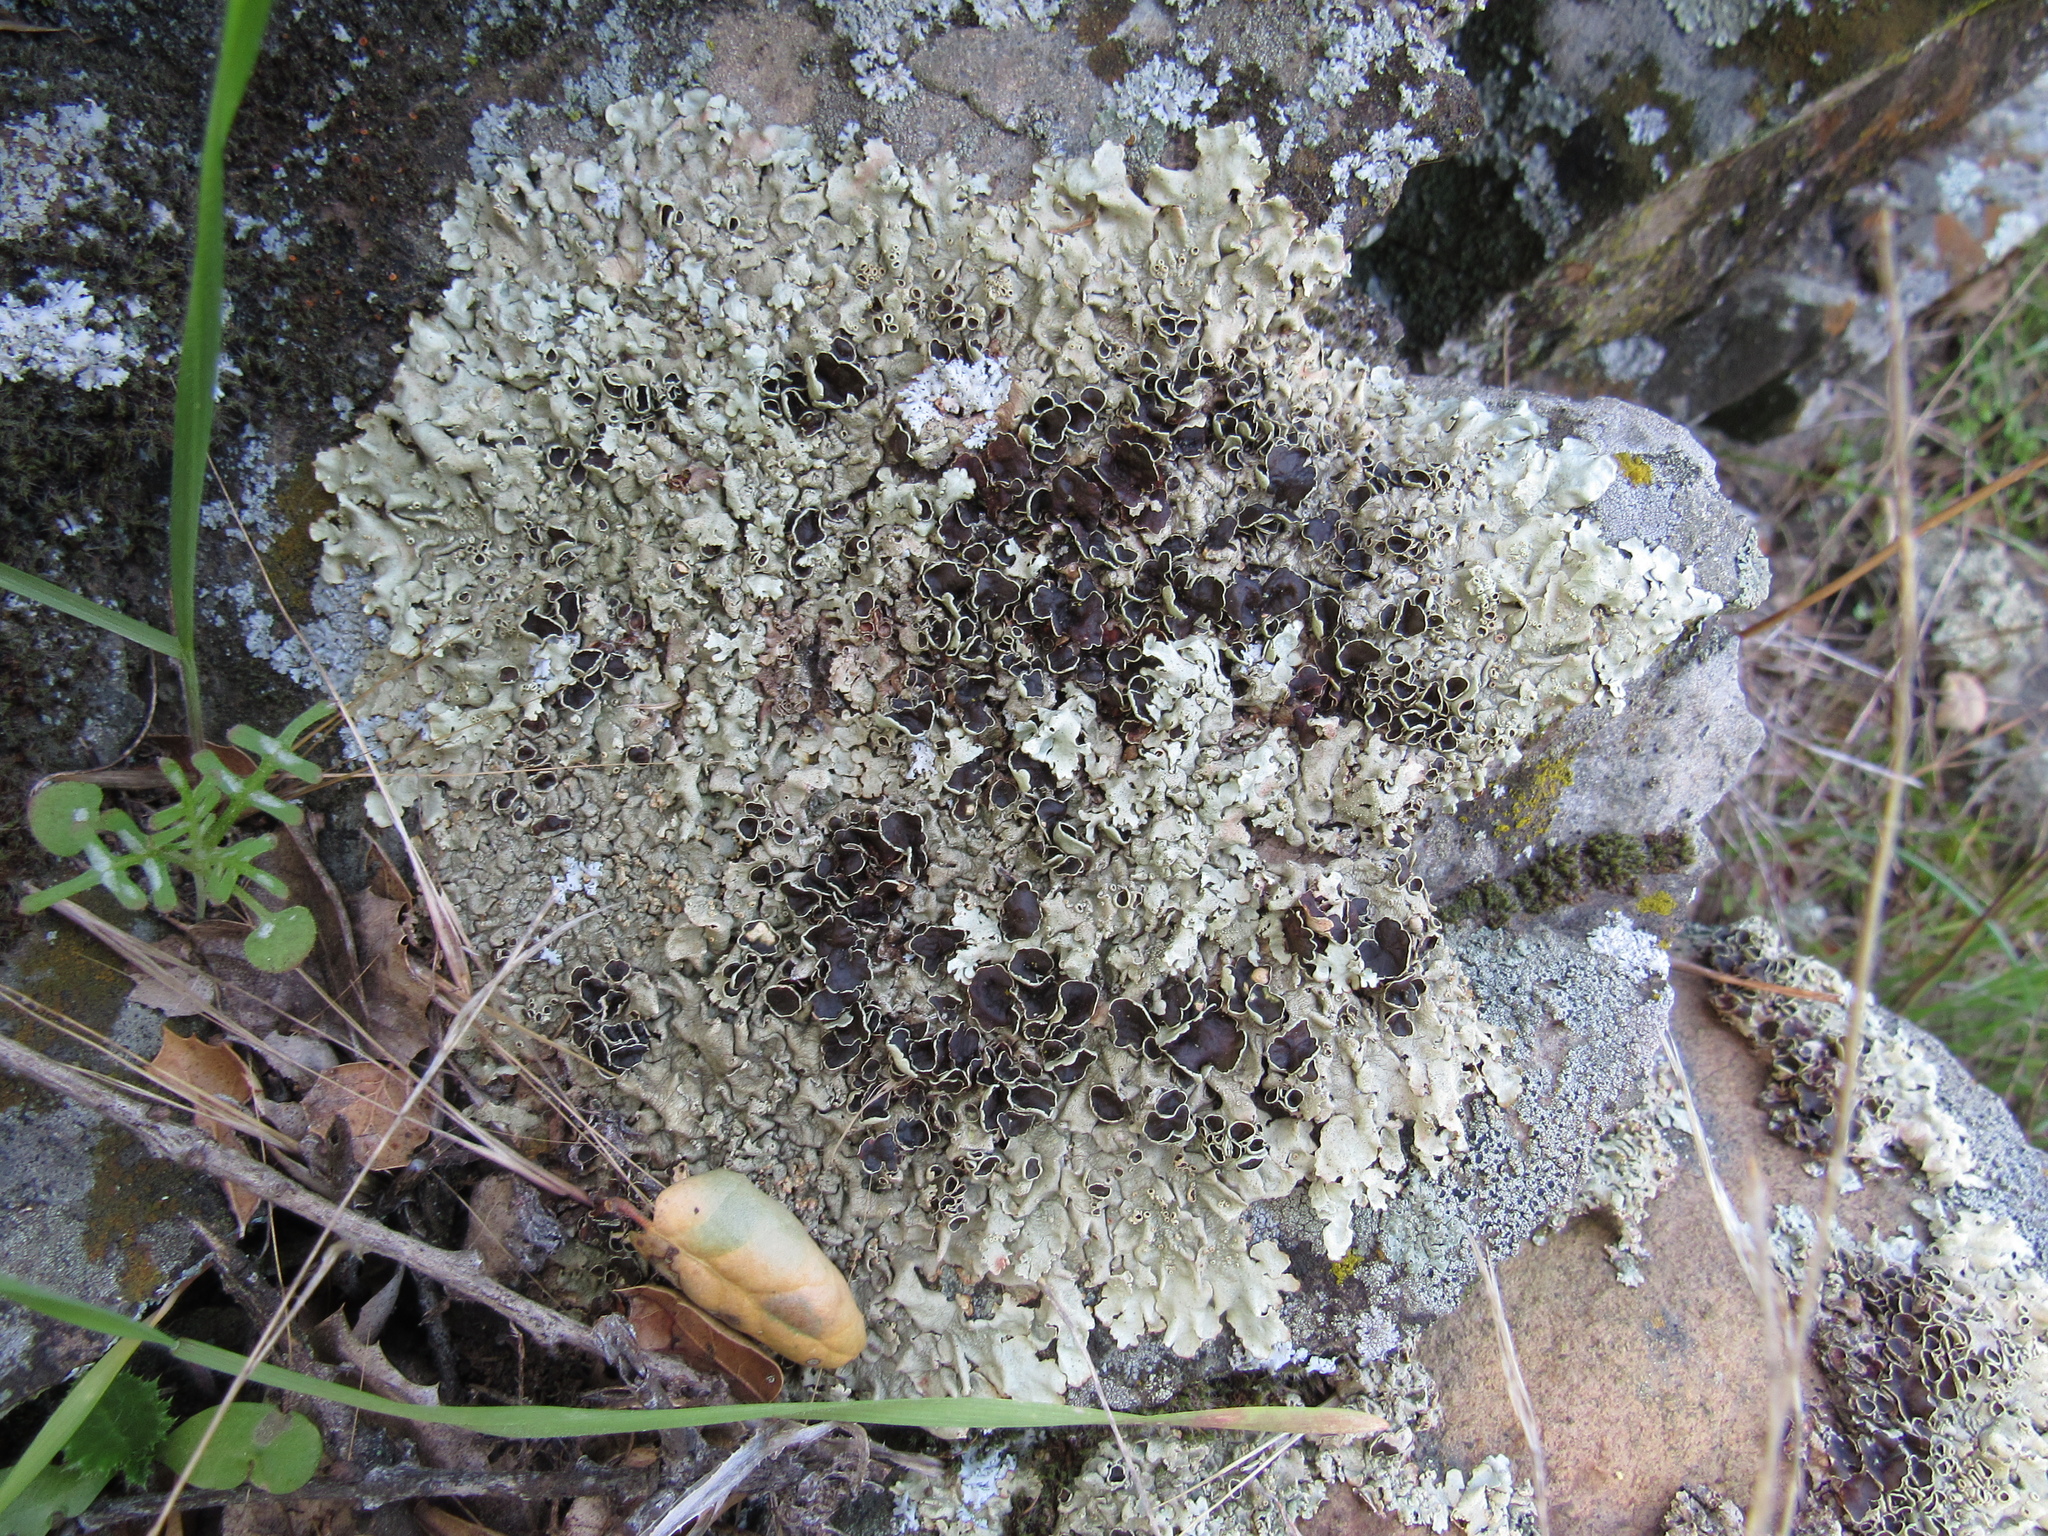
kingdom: Fungi
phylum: Ascomycota
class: Lecanoromycetes
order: Lecanorales
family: Parmeliaceae
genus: Xanthoparmelia
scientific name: Xanthoparmelia cumberlandia
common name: Cumberland rock shield
